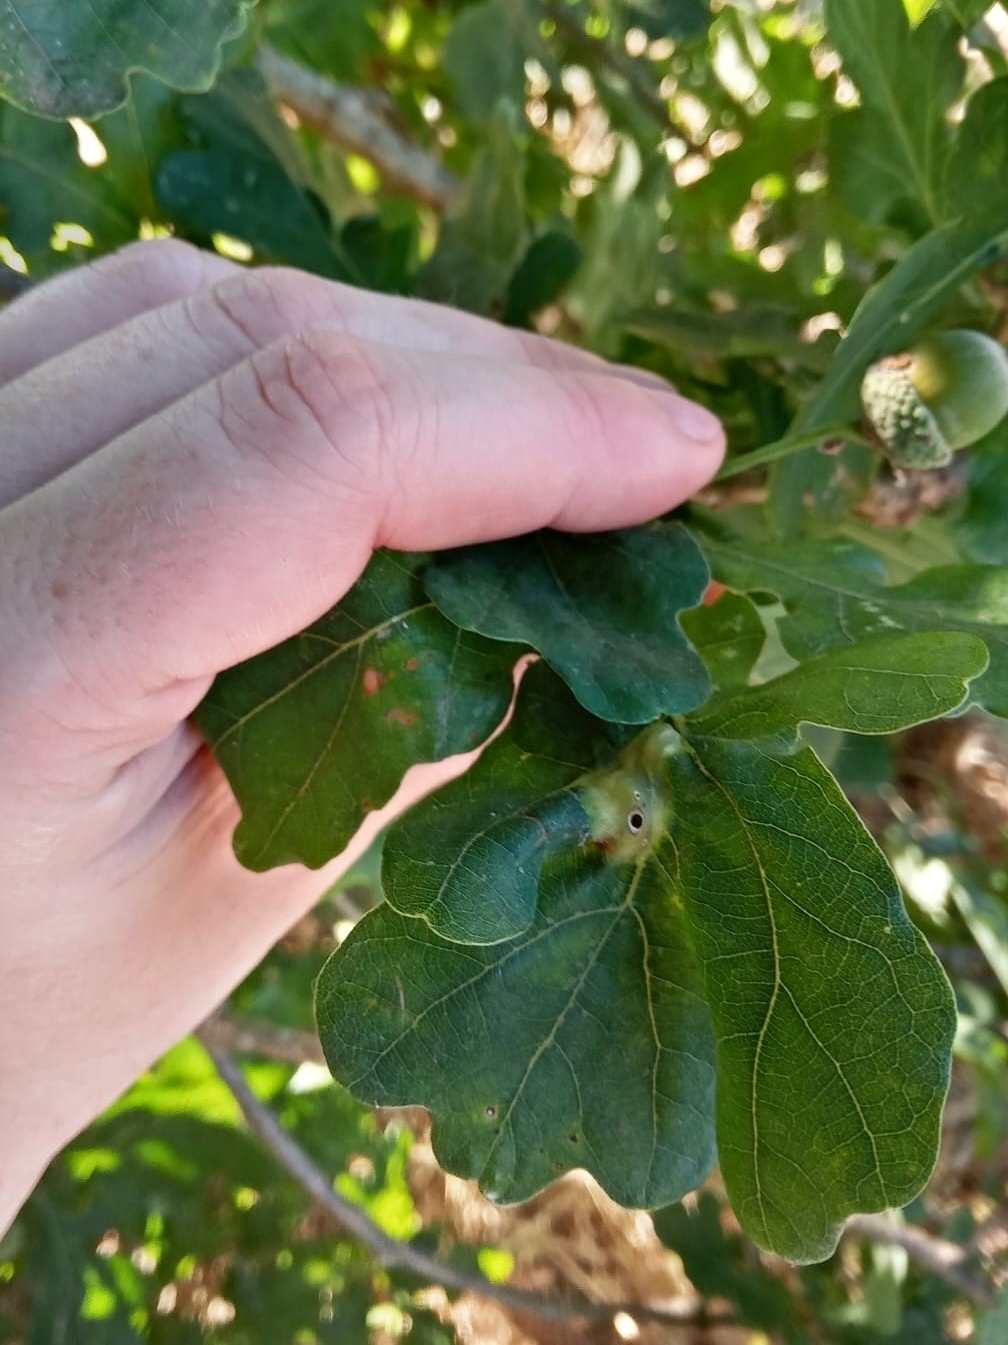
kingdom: Animalia
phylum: Arthropoda
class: Insecta
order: Hymenoptera
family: Cynipidae
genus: Andricus
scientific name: Andricus curvator
